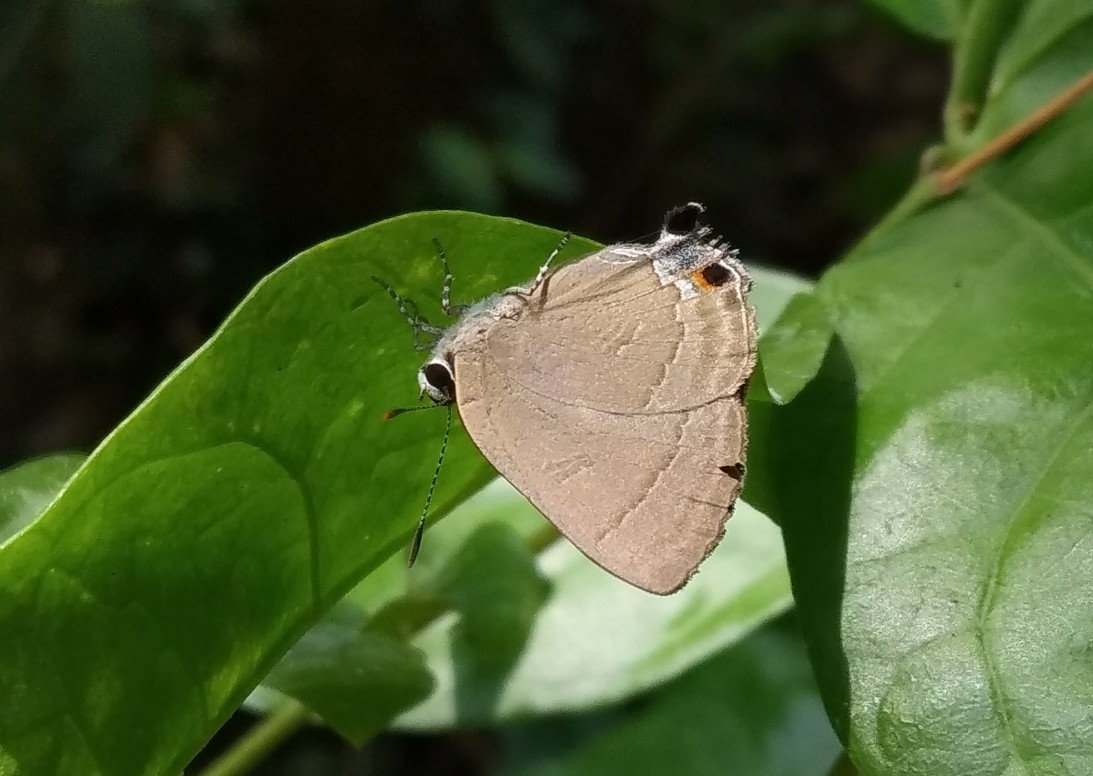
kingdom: Animalia
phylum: Arthropoda
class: Insecta
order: Lepidoptera
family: Lycaenidae
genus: Rapala
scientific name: Rapala manea
